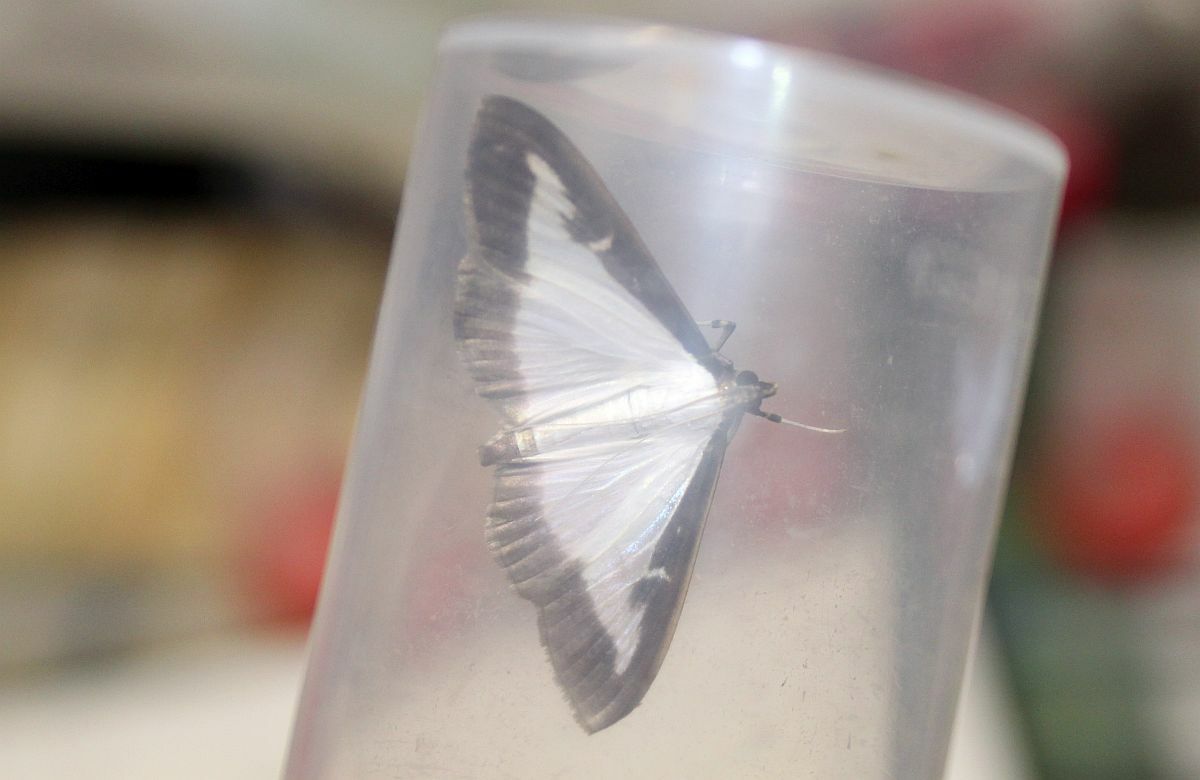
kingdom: Animalia
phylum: Arthropoda
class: Insecta
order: Lepidoptera
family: Crambidae
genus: Cydalima
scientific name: Cydalima perspectalis
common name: Box tree moth
